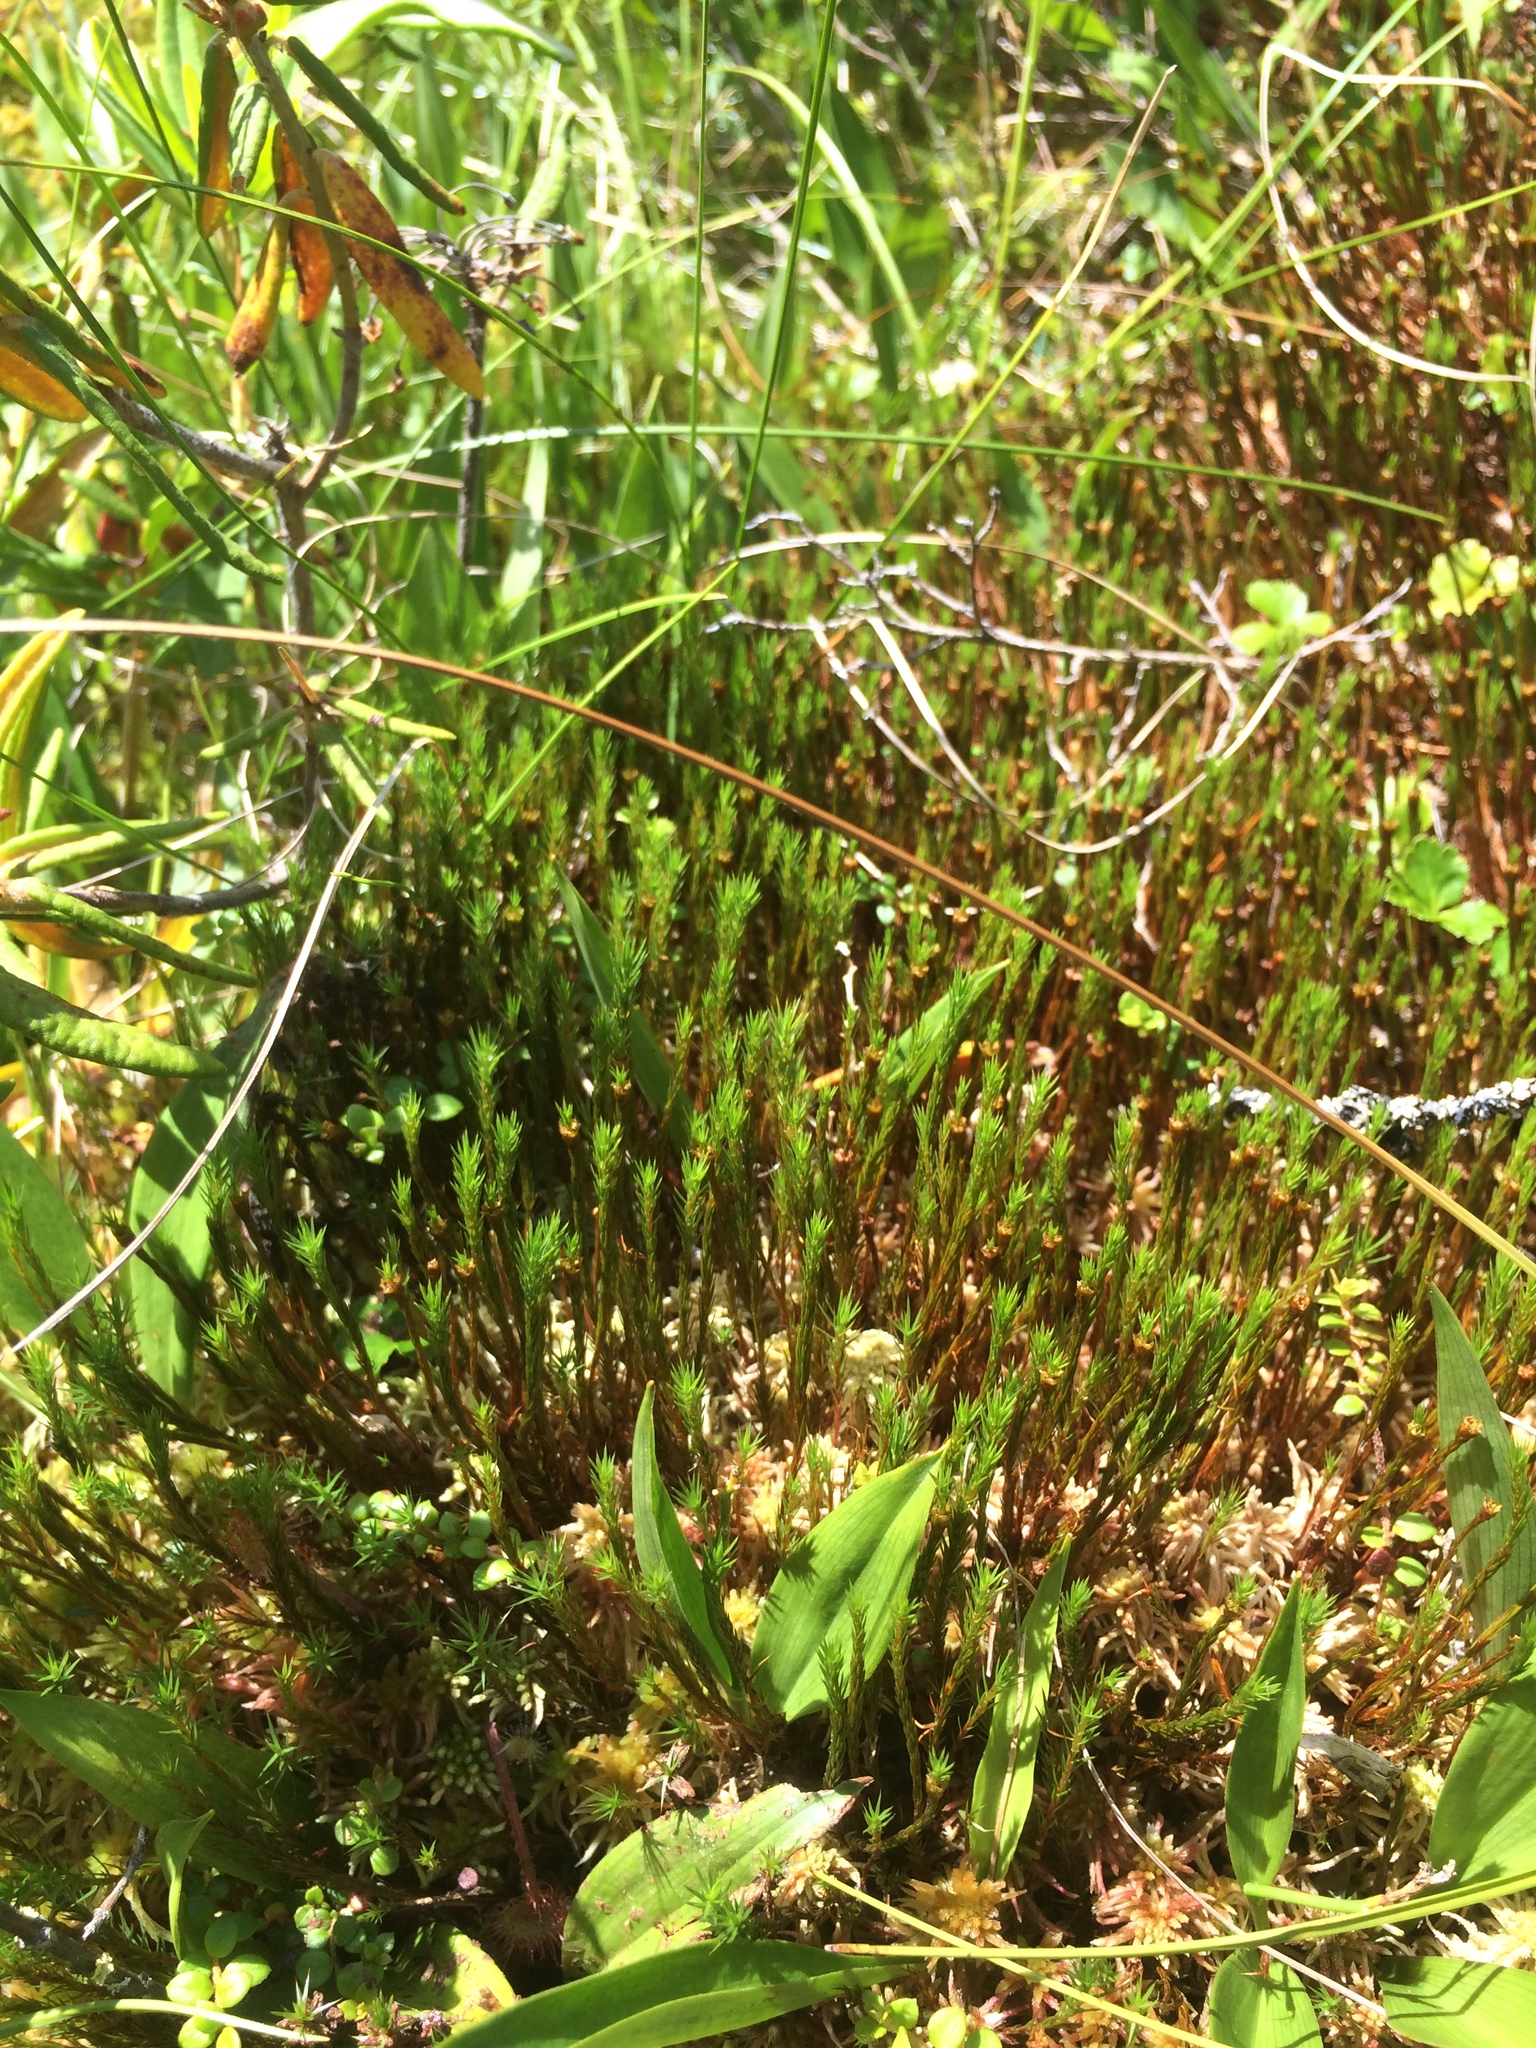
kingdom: Plantae
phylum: Bryophyta
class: Polytrichopsida
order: Polytrichales
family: Polytrichaceae
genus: Polytrichum
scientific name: Polytrichum strictum
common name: Bog haircap moss
